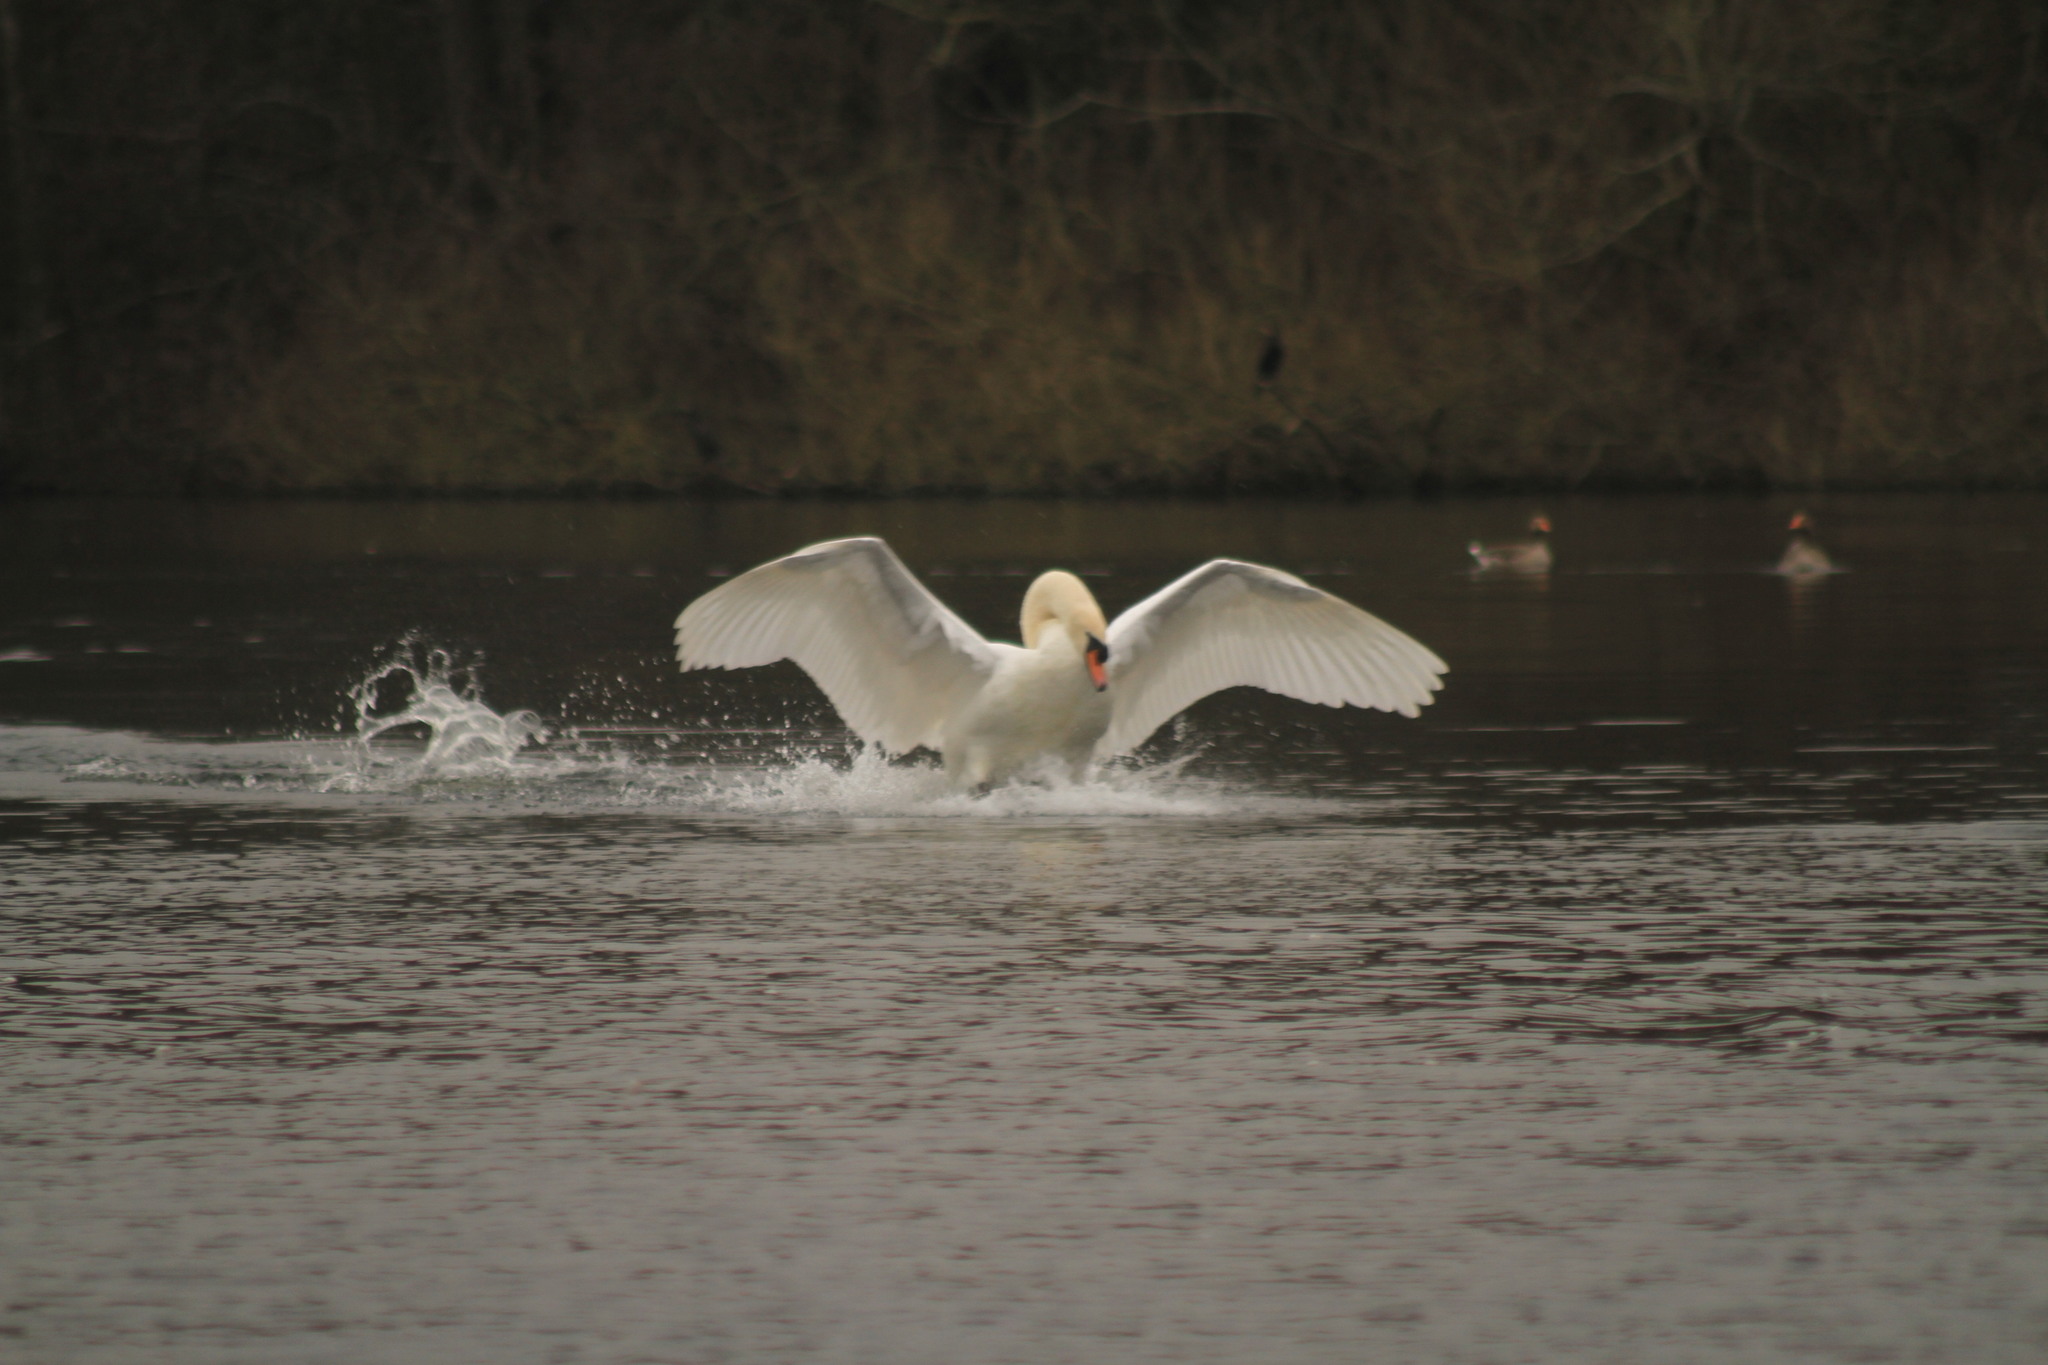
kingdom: Animalia
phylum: Chordata
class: Aves
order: Anseriformes
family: Anatidae
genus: Cygnus
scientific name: Cygnus olor
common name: Mute swan
